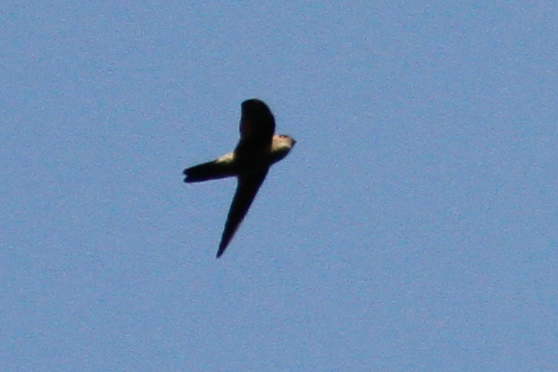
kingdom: Animalia
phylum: Chordata
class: Aves
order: Apodiformes
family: Apodidae
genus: Aerodramus
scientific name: Aerodramus
